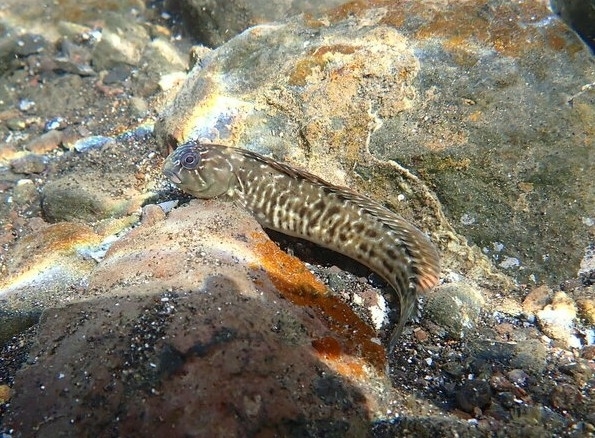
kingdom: Animalia
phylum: Chordata
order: Perciformes
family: Blenniidae
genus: Parablennius
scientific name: Parablennius parvicornis
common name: Rock-pool blenny
